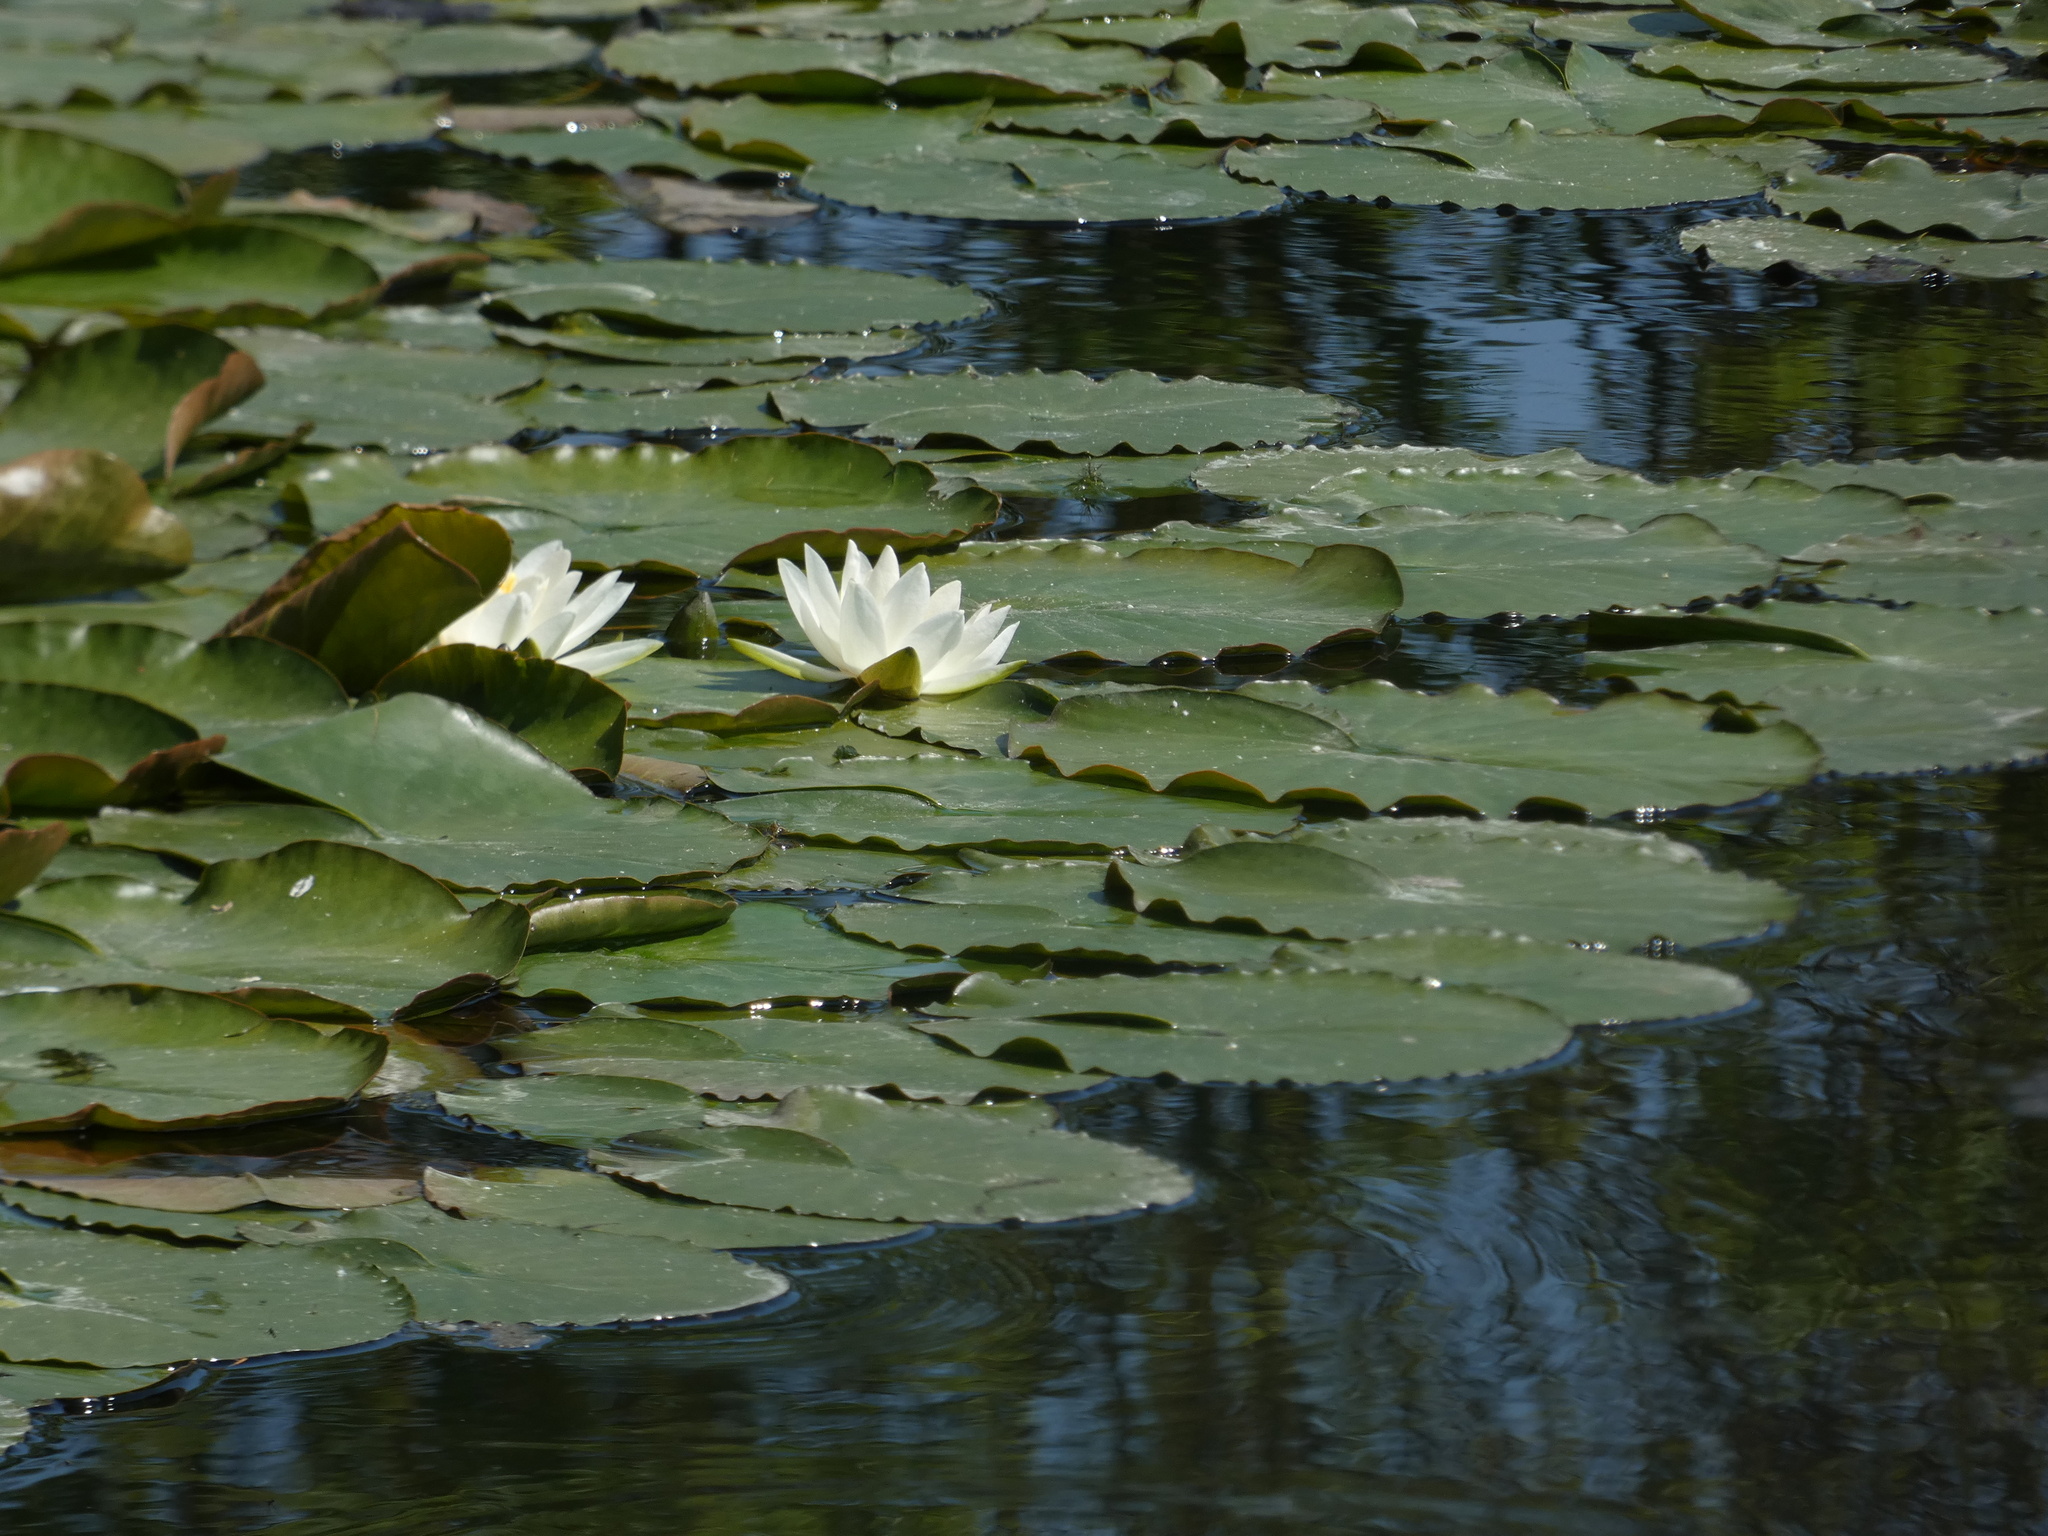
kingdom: Plantae
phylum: Tracheophyta
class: Magnoliopsida
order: Nymphaeales
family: Nymphaeaceae
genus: Nymphaea
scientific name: Nymphaea alba
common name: White water-lily
